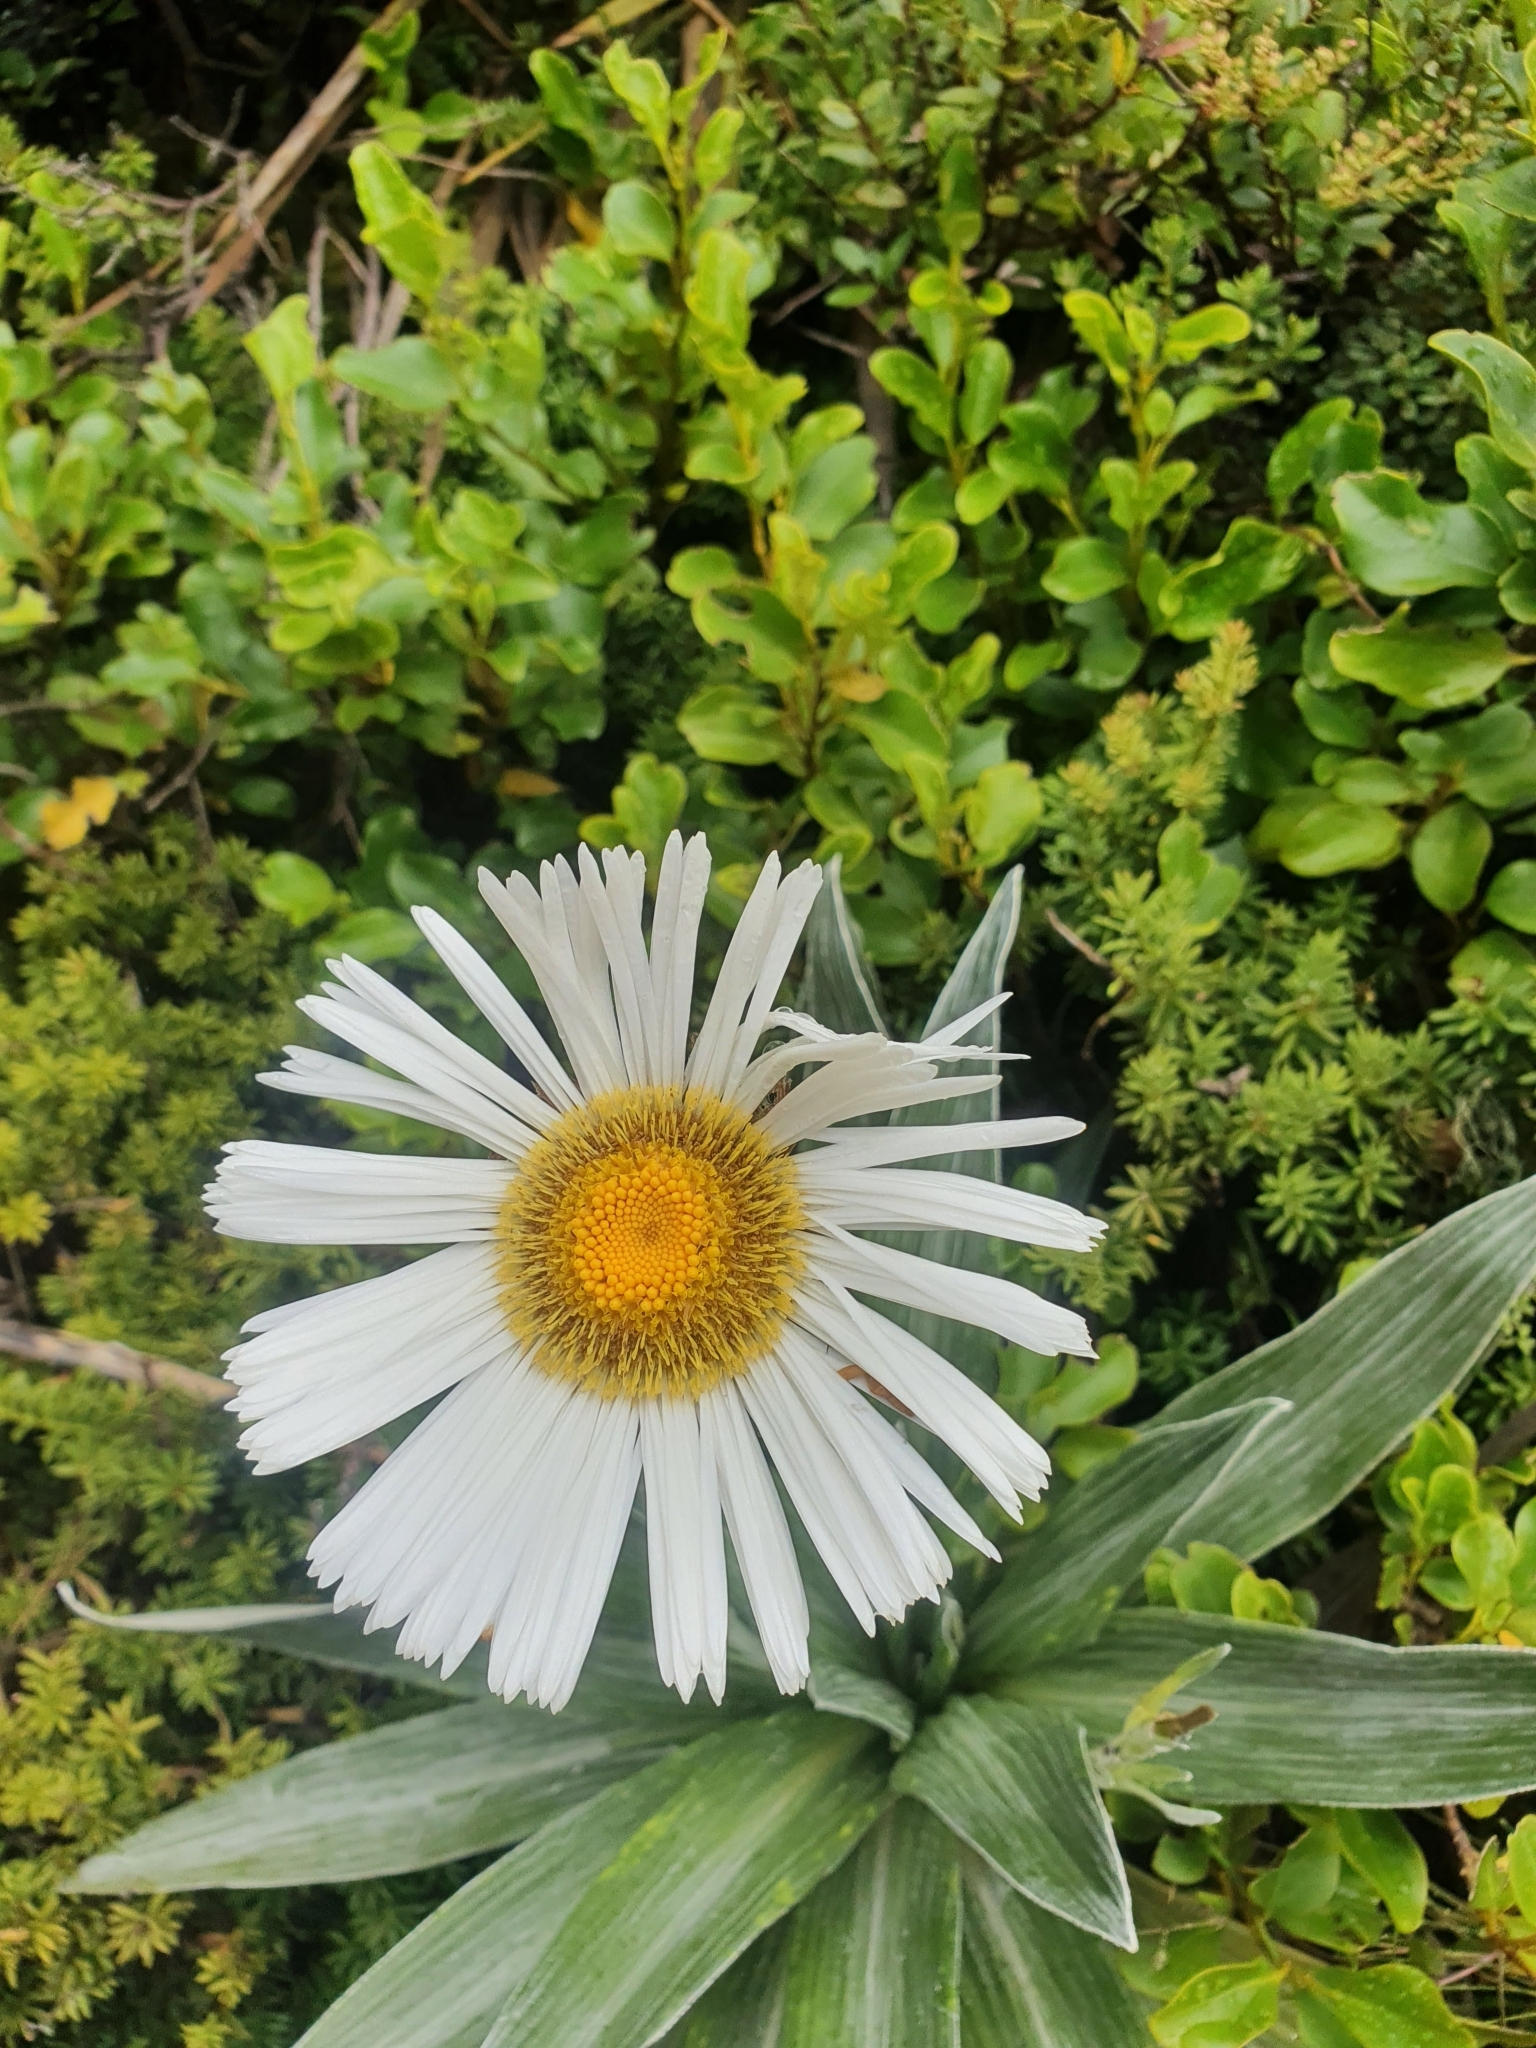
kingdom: Plantae
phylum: Tracheophyta
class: Magnoliopsida
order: Asterales
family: Asteraceae
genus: Celmisia
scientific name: Celmisia semicordata
